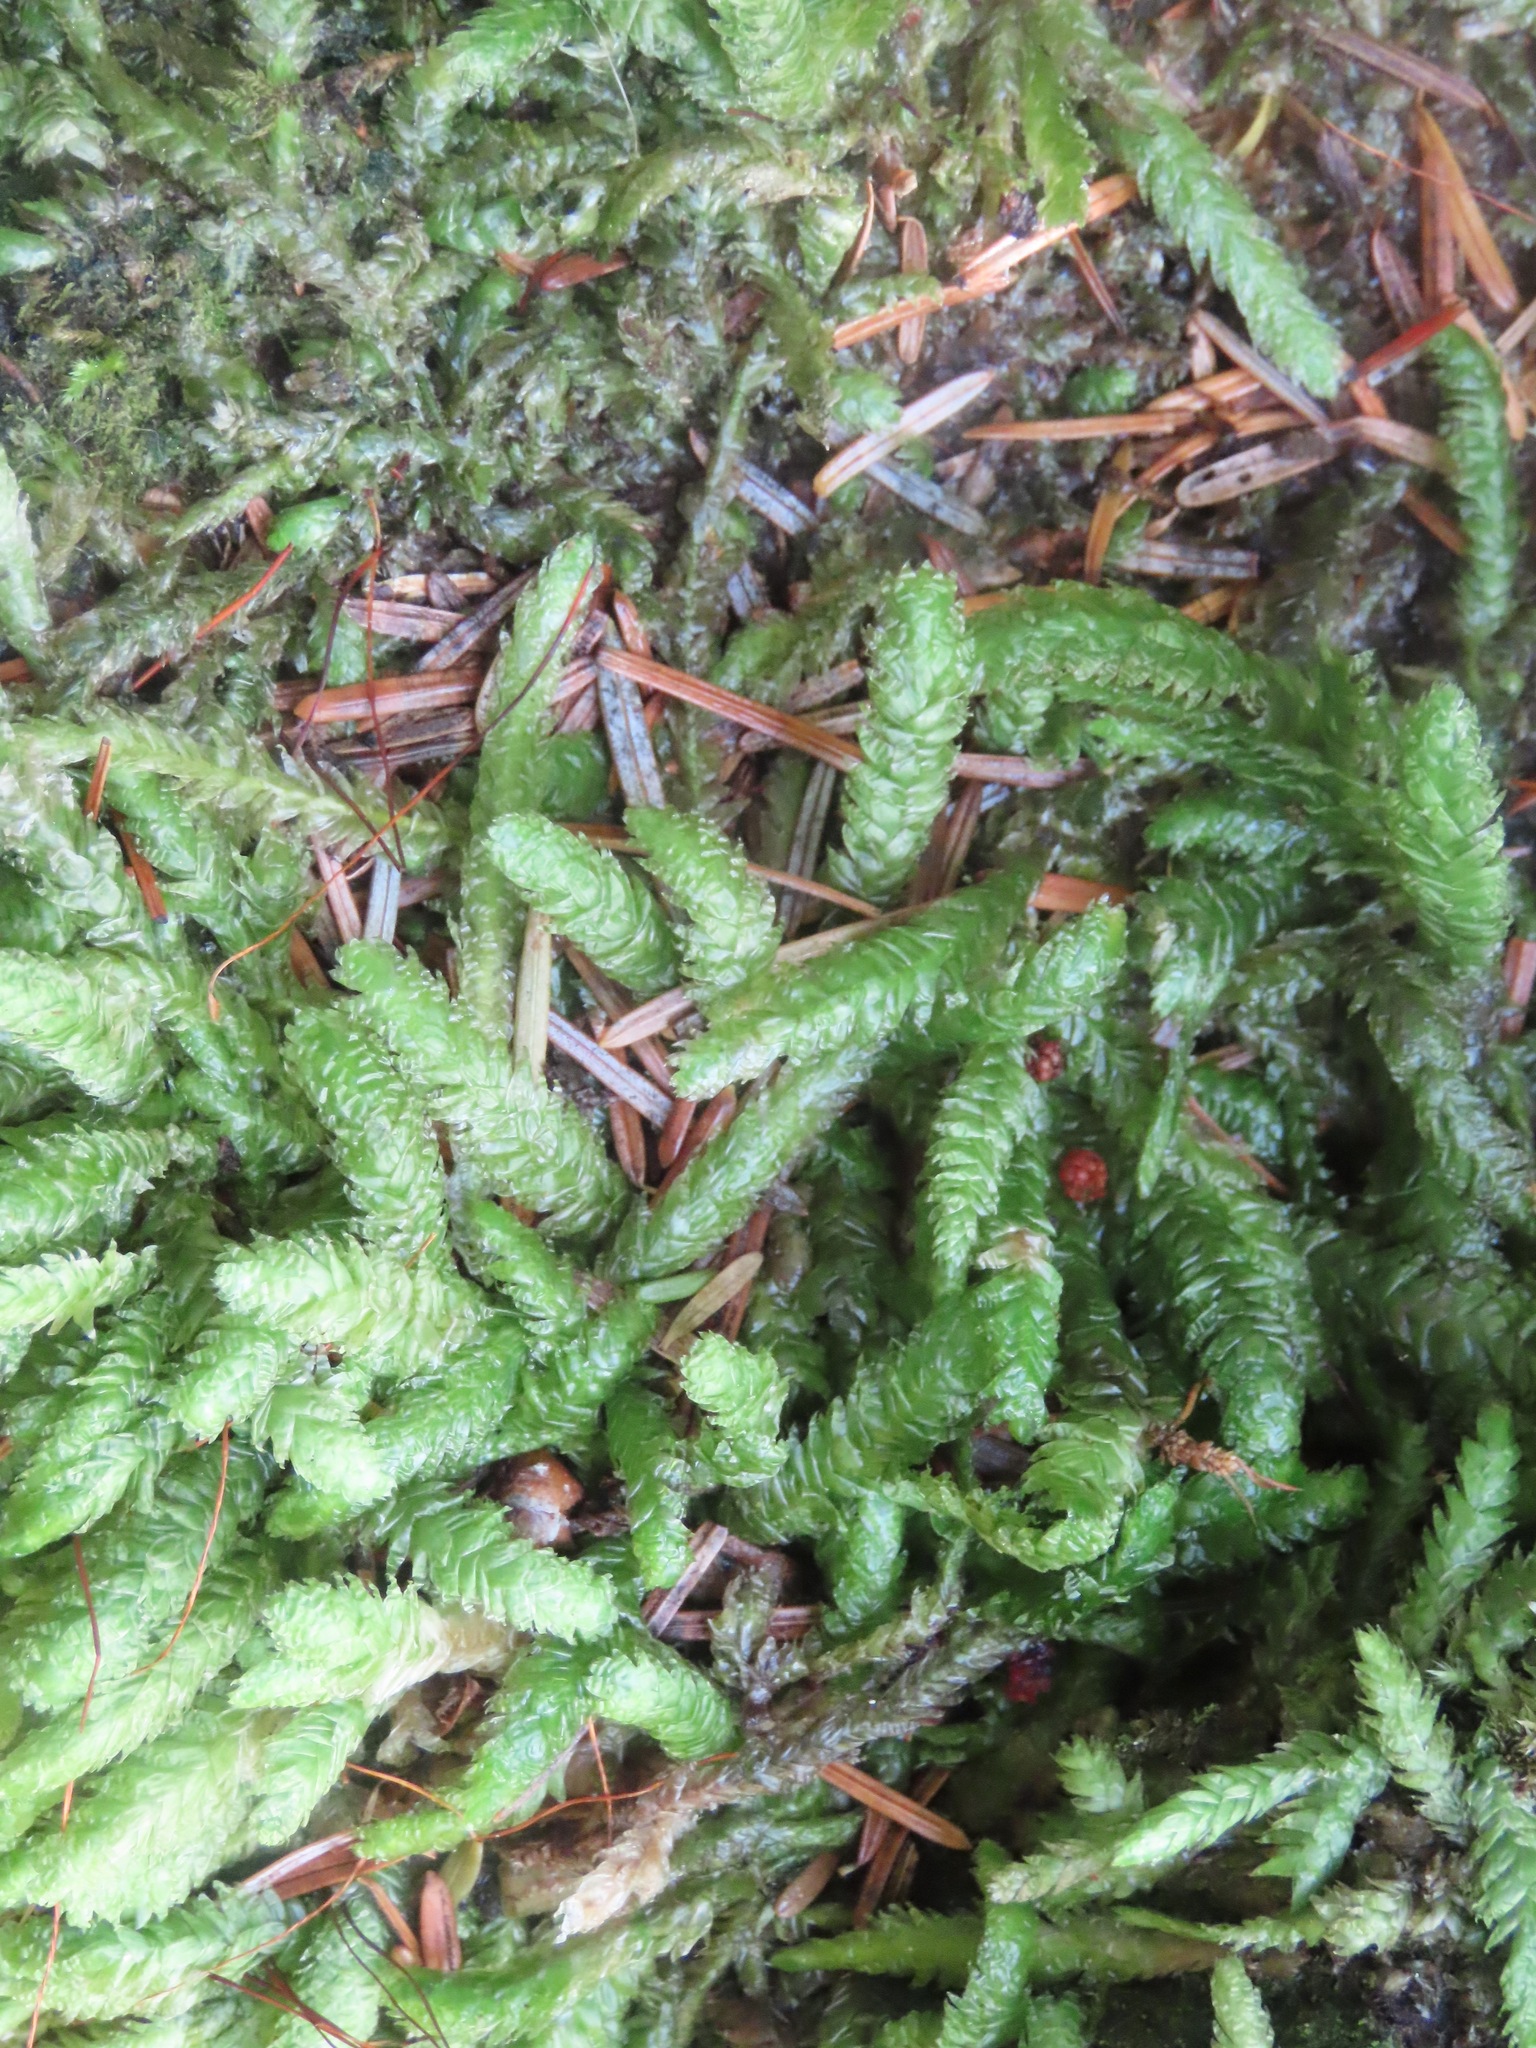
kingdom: Plantae
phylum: Bryophyta
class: Bryopsida
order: Hypnales
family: Plagiotheciaceae
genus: Plagiothecium
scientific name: Plagiothecium undulatum
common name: Waved silk-moss
